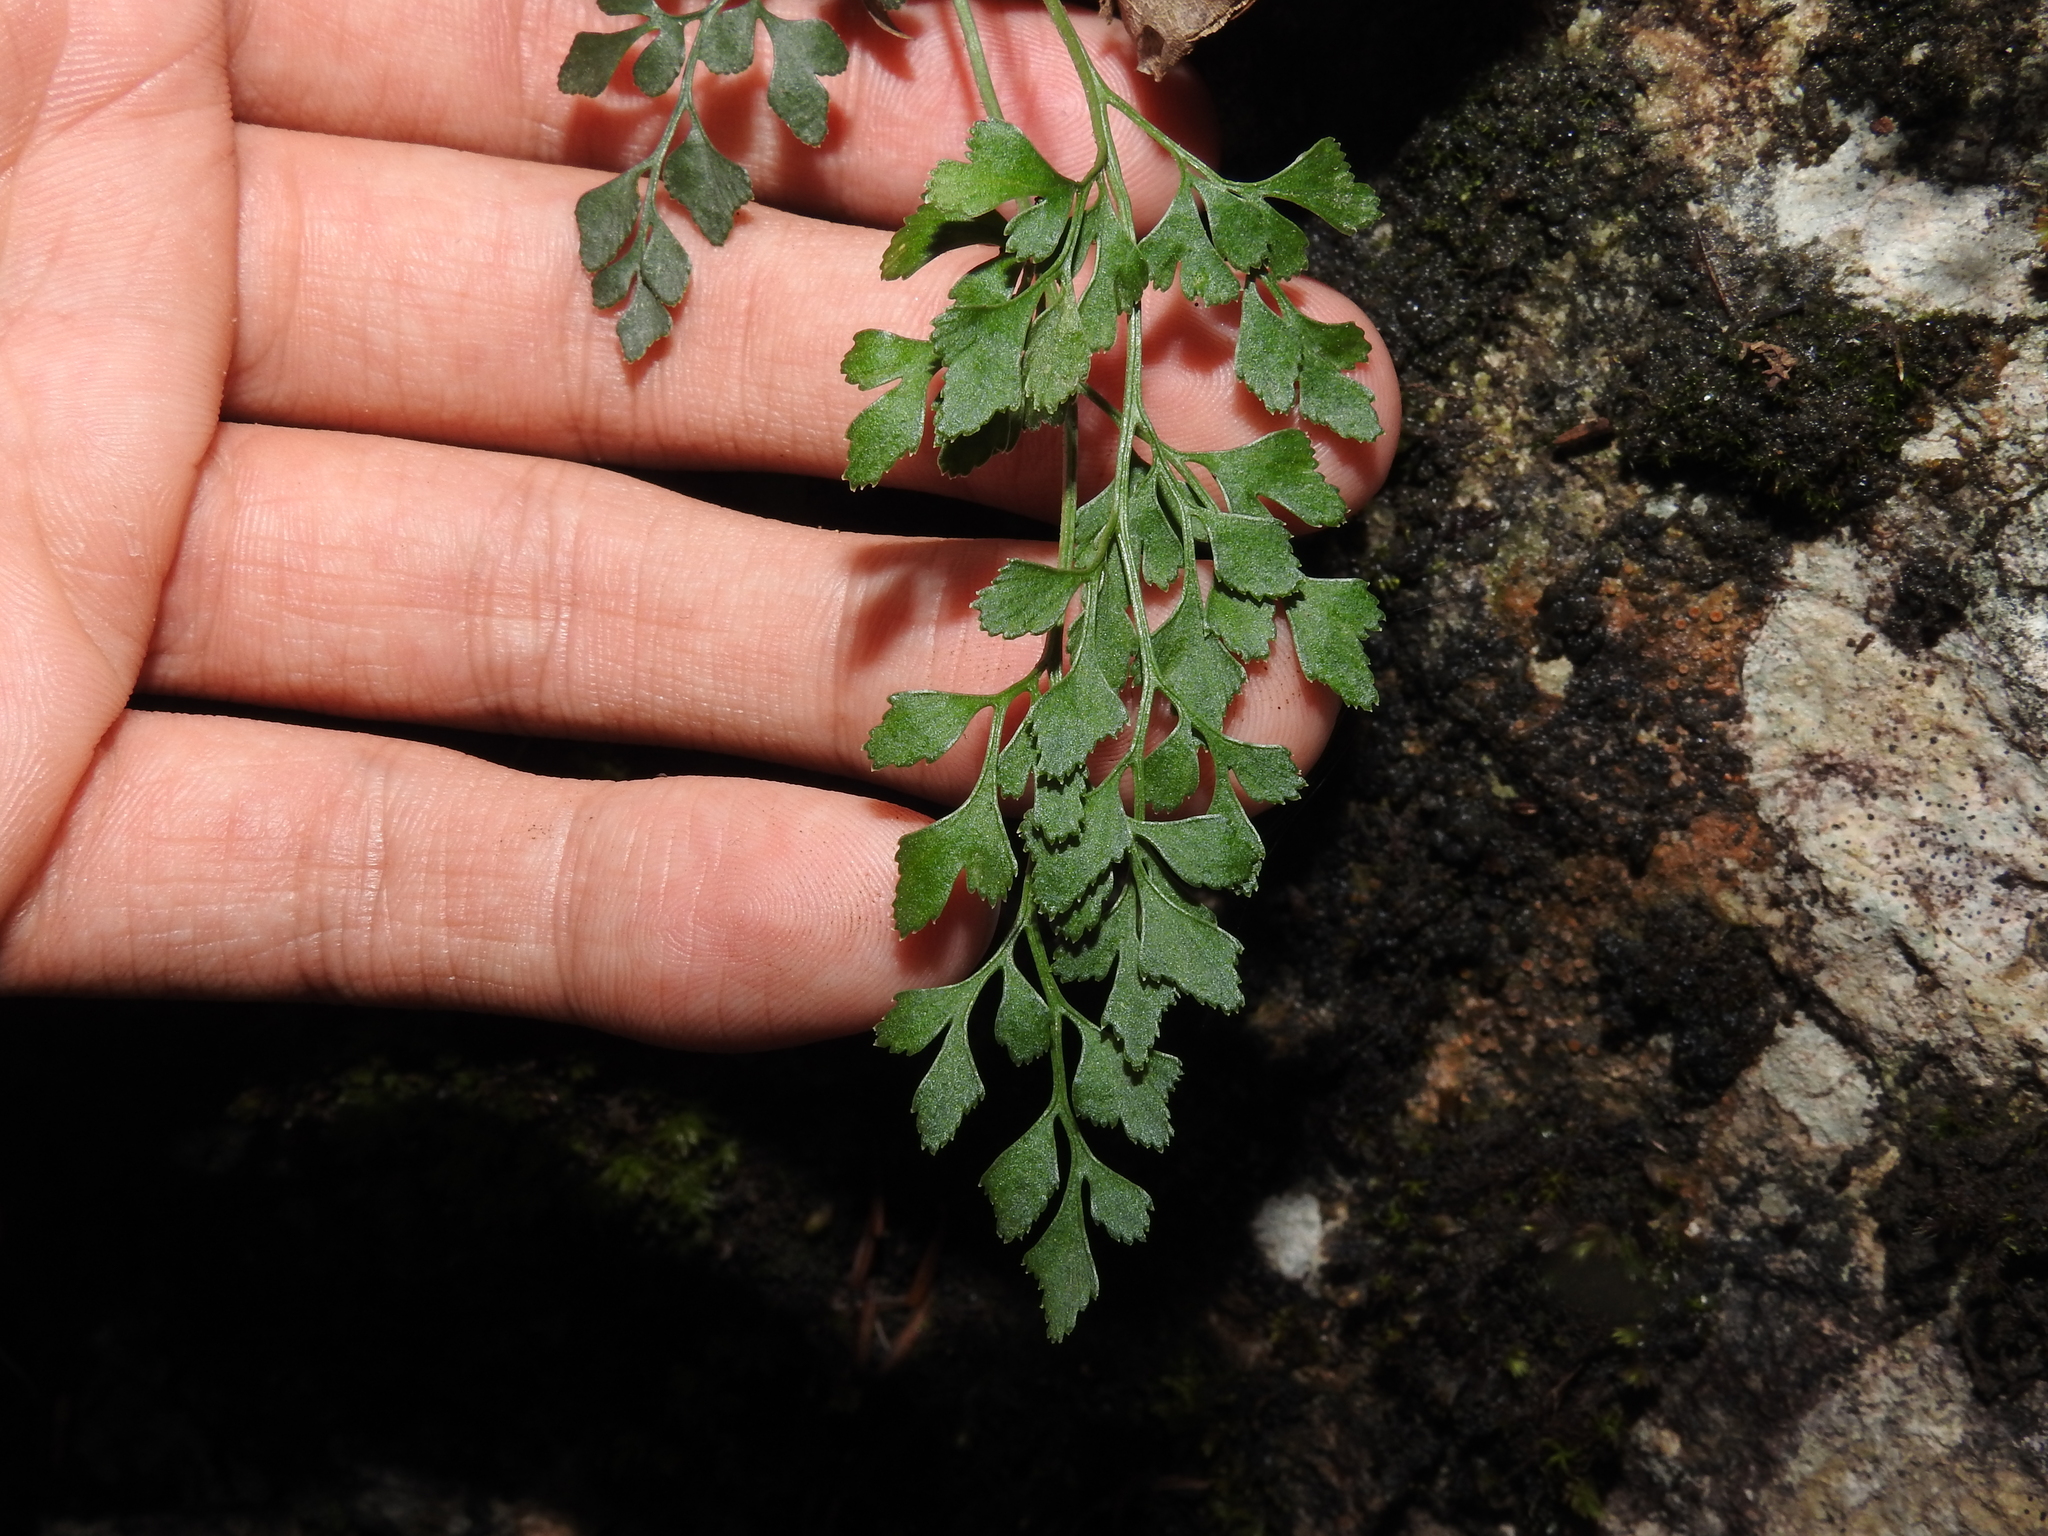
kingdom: Plantae
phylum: Tracheophyta
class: Polypodiopsida
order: Polypodiales
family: Aspleniaceae
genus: Asplenium
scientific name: Asplenium ruta-muraria
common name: Wall-rue
